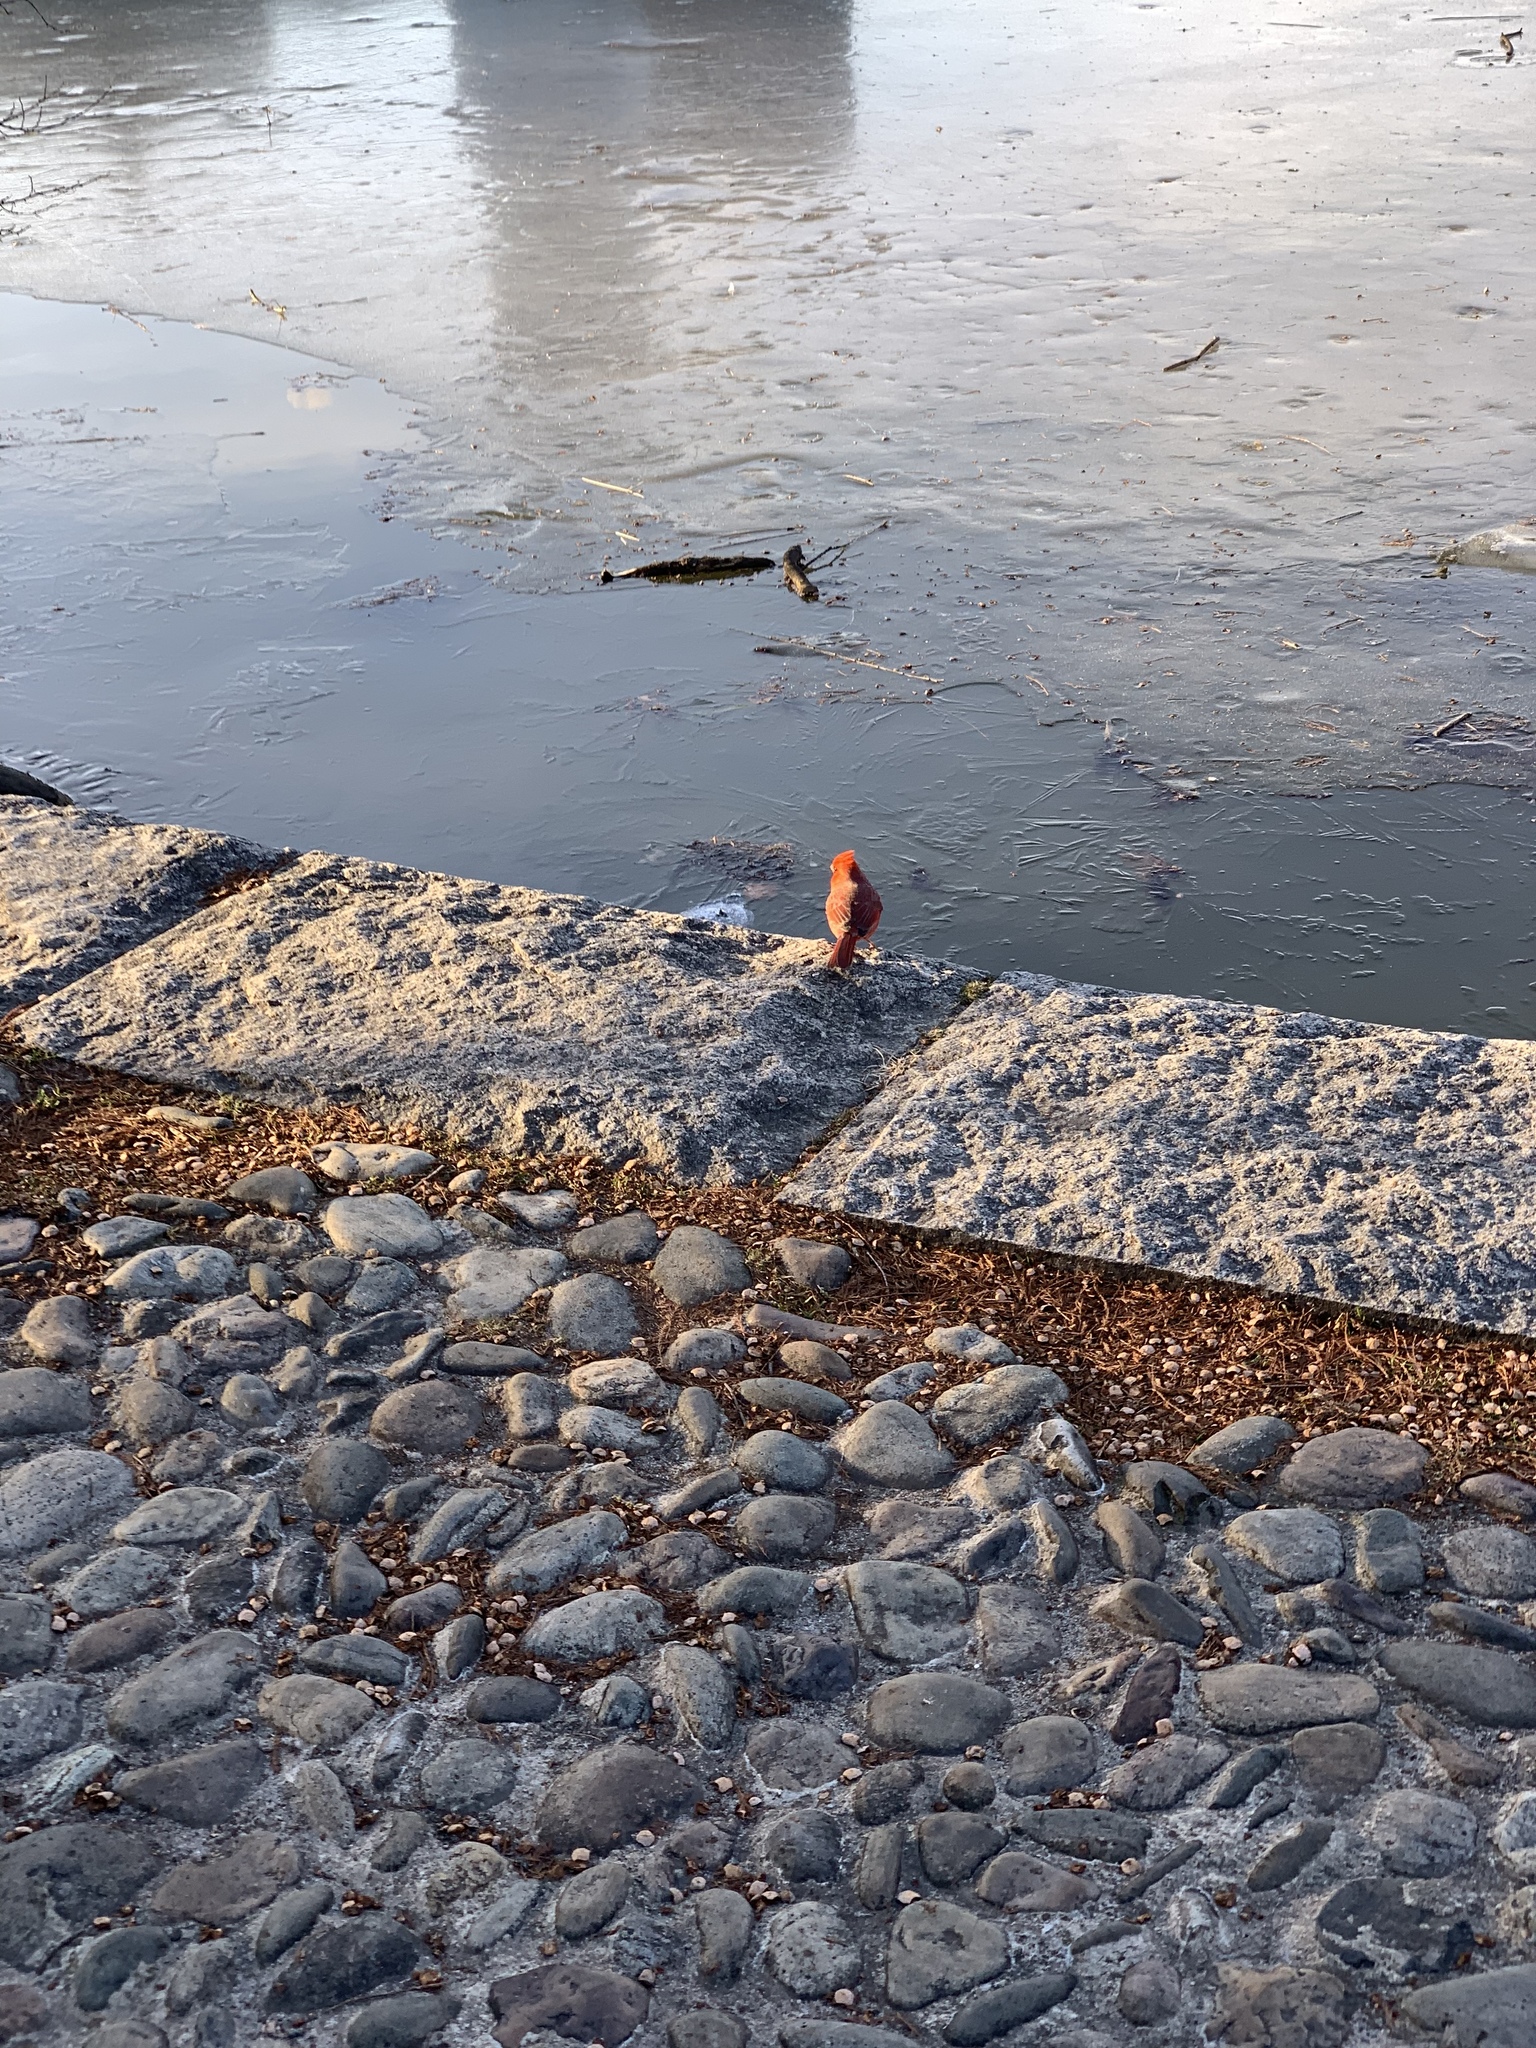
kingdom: Animalia
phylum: Chordata
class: Aves
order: Passeriformes
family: Cardinalidae
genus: Cardinalis
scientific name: Cardinalis cardinalis
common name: Northern cardinal
